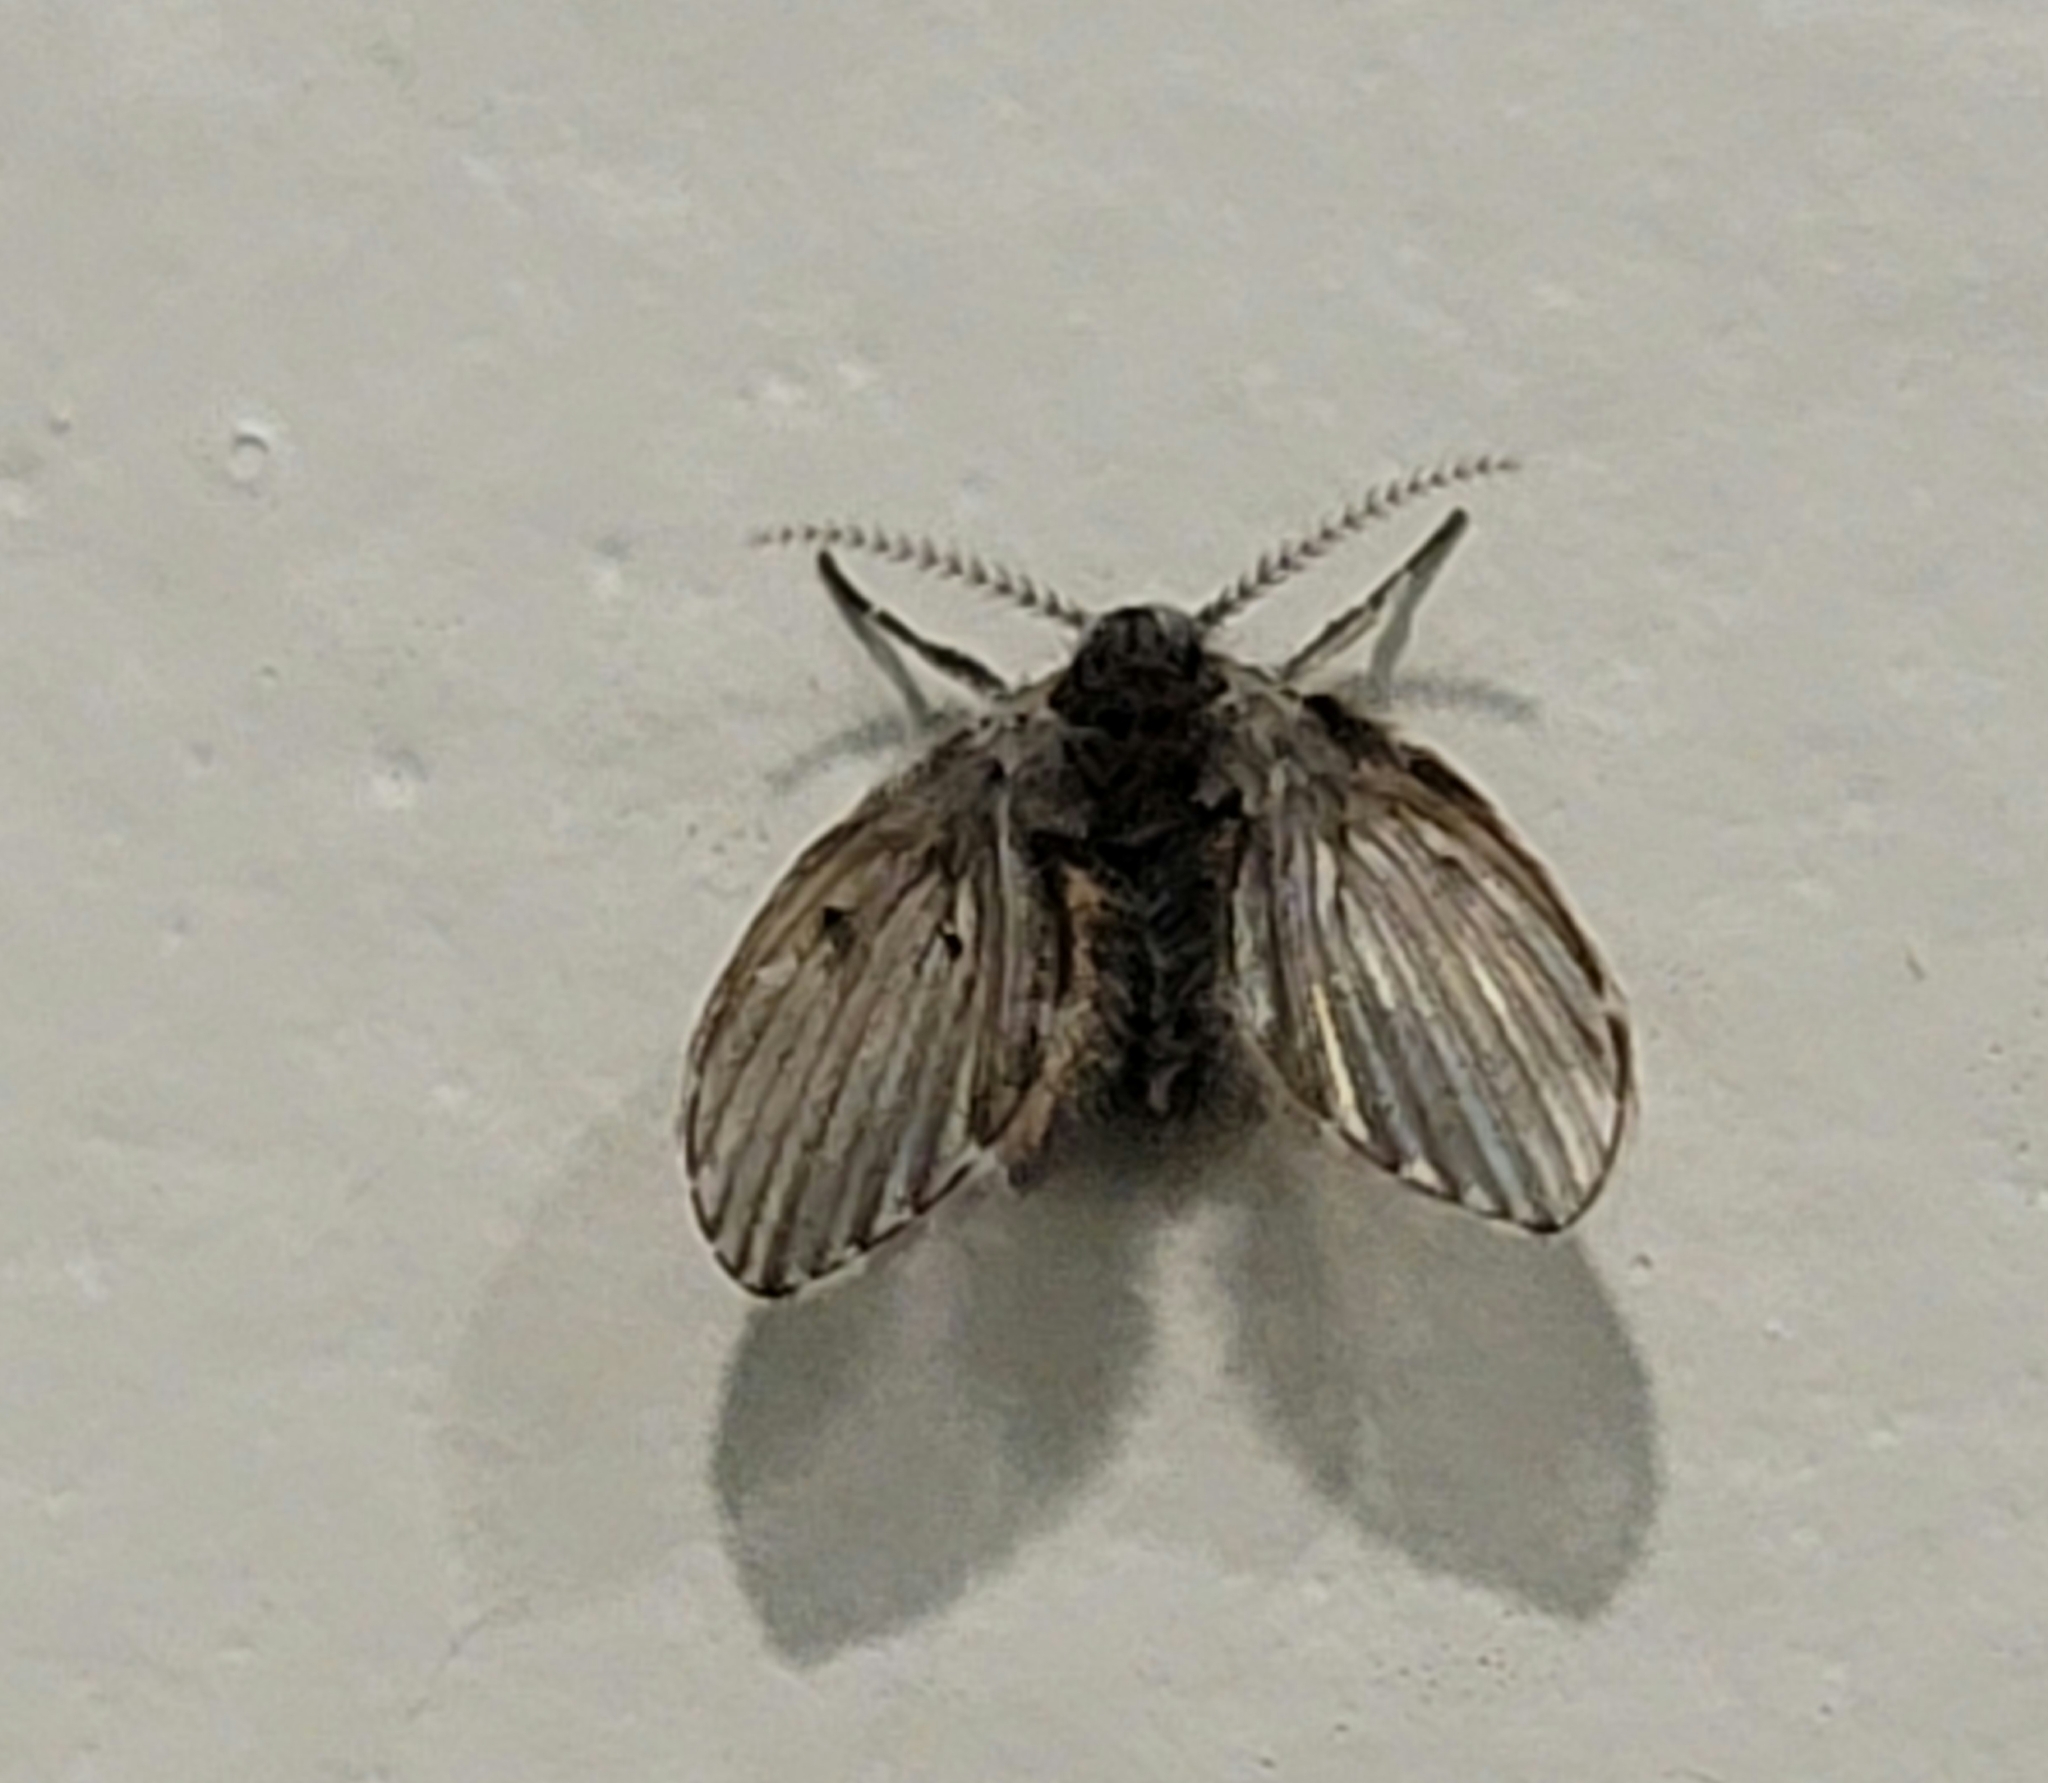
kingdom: Animalia
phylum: Arthropoda
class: Insecta
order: Diptera
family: Psychodidae
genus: Clogmia
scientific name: Clogmia albipunctatus
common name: White-spotted moth fly
